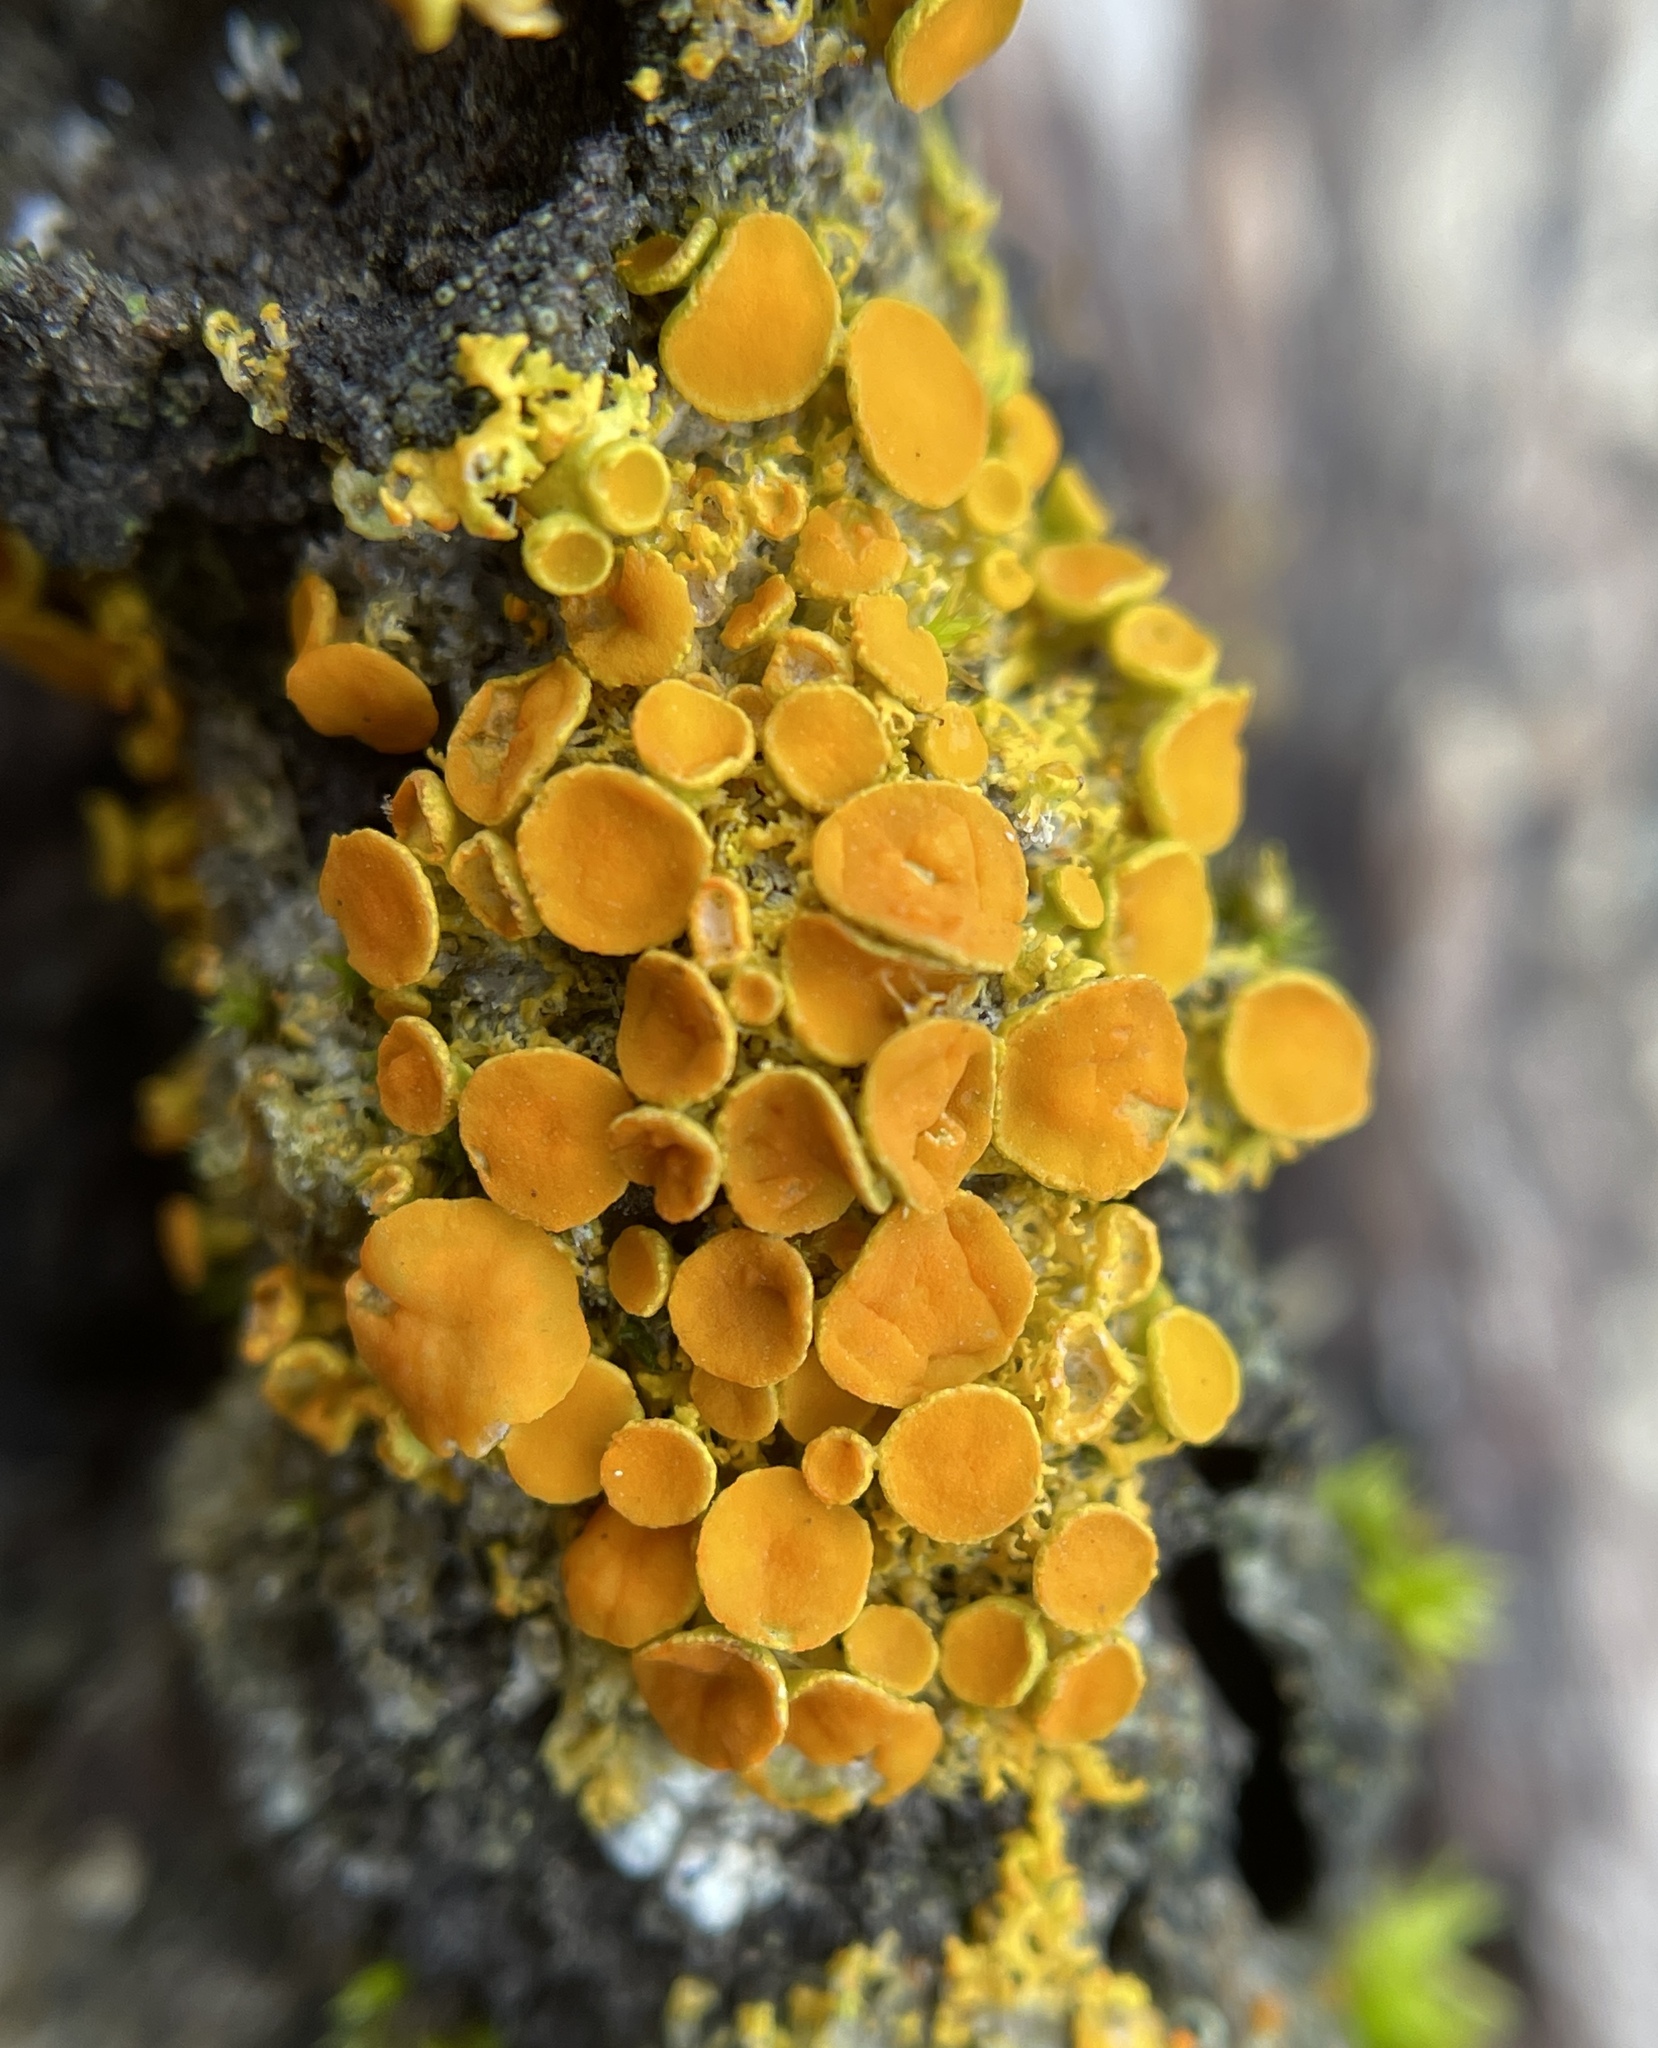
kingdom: Fungi
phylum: Ascomycota
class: Lecanoromycetes
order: Teloschistales
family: Teloschistaceae
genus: Gallowayella
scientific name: Gallowayella hasseana
